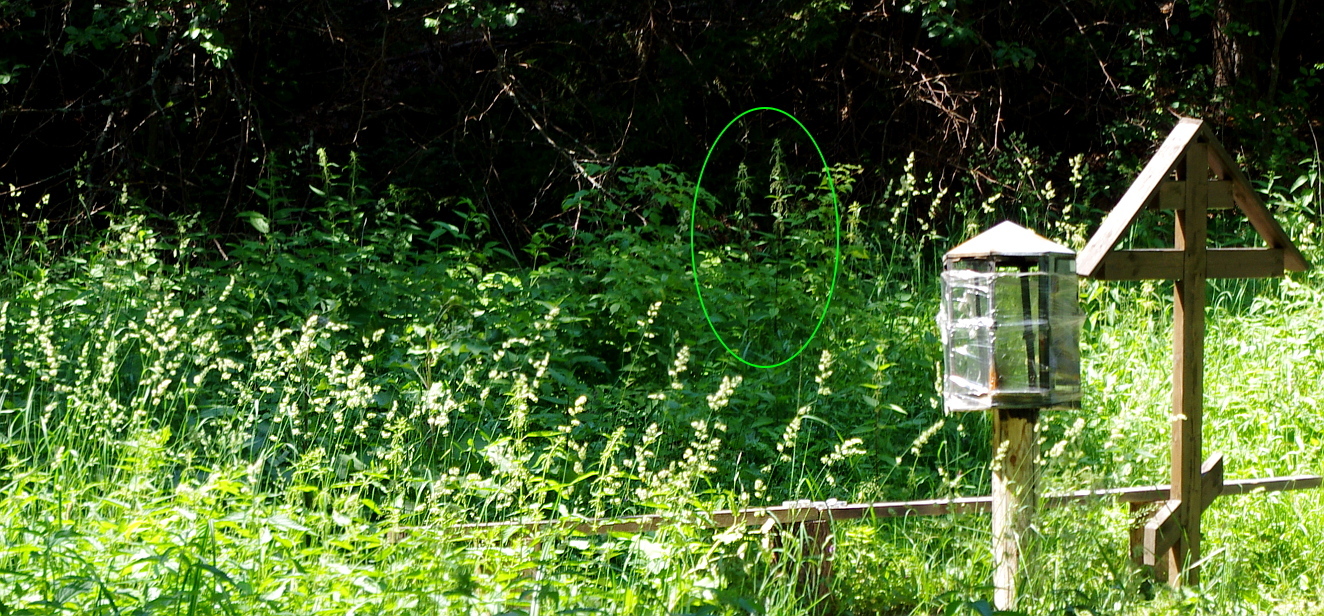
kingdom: Plantae
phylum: Tracheophyta
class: Magnoliopsida
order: Rosales
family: Urticaceae
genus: Urtica
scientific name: Urtica dioica
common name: Common nettle
